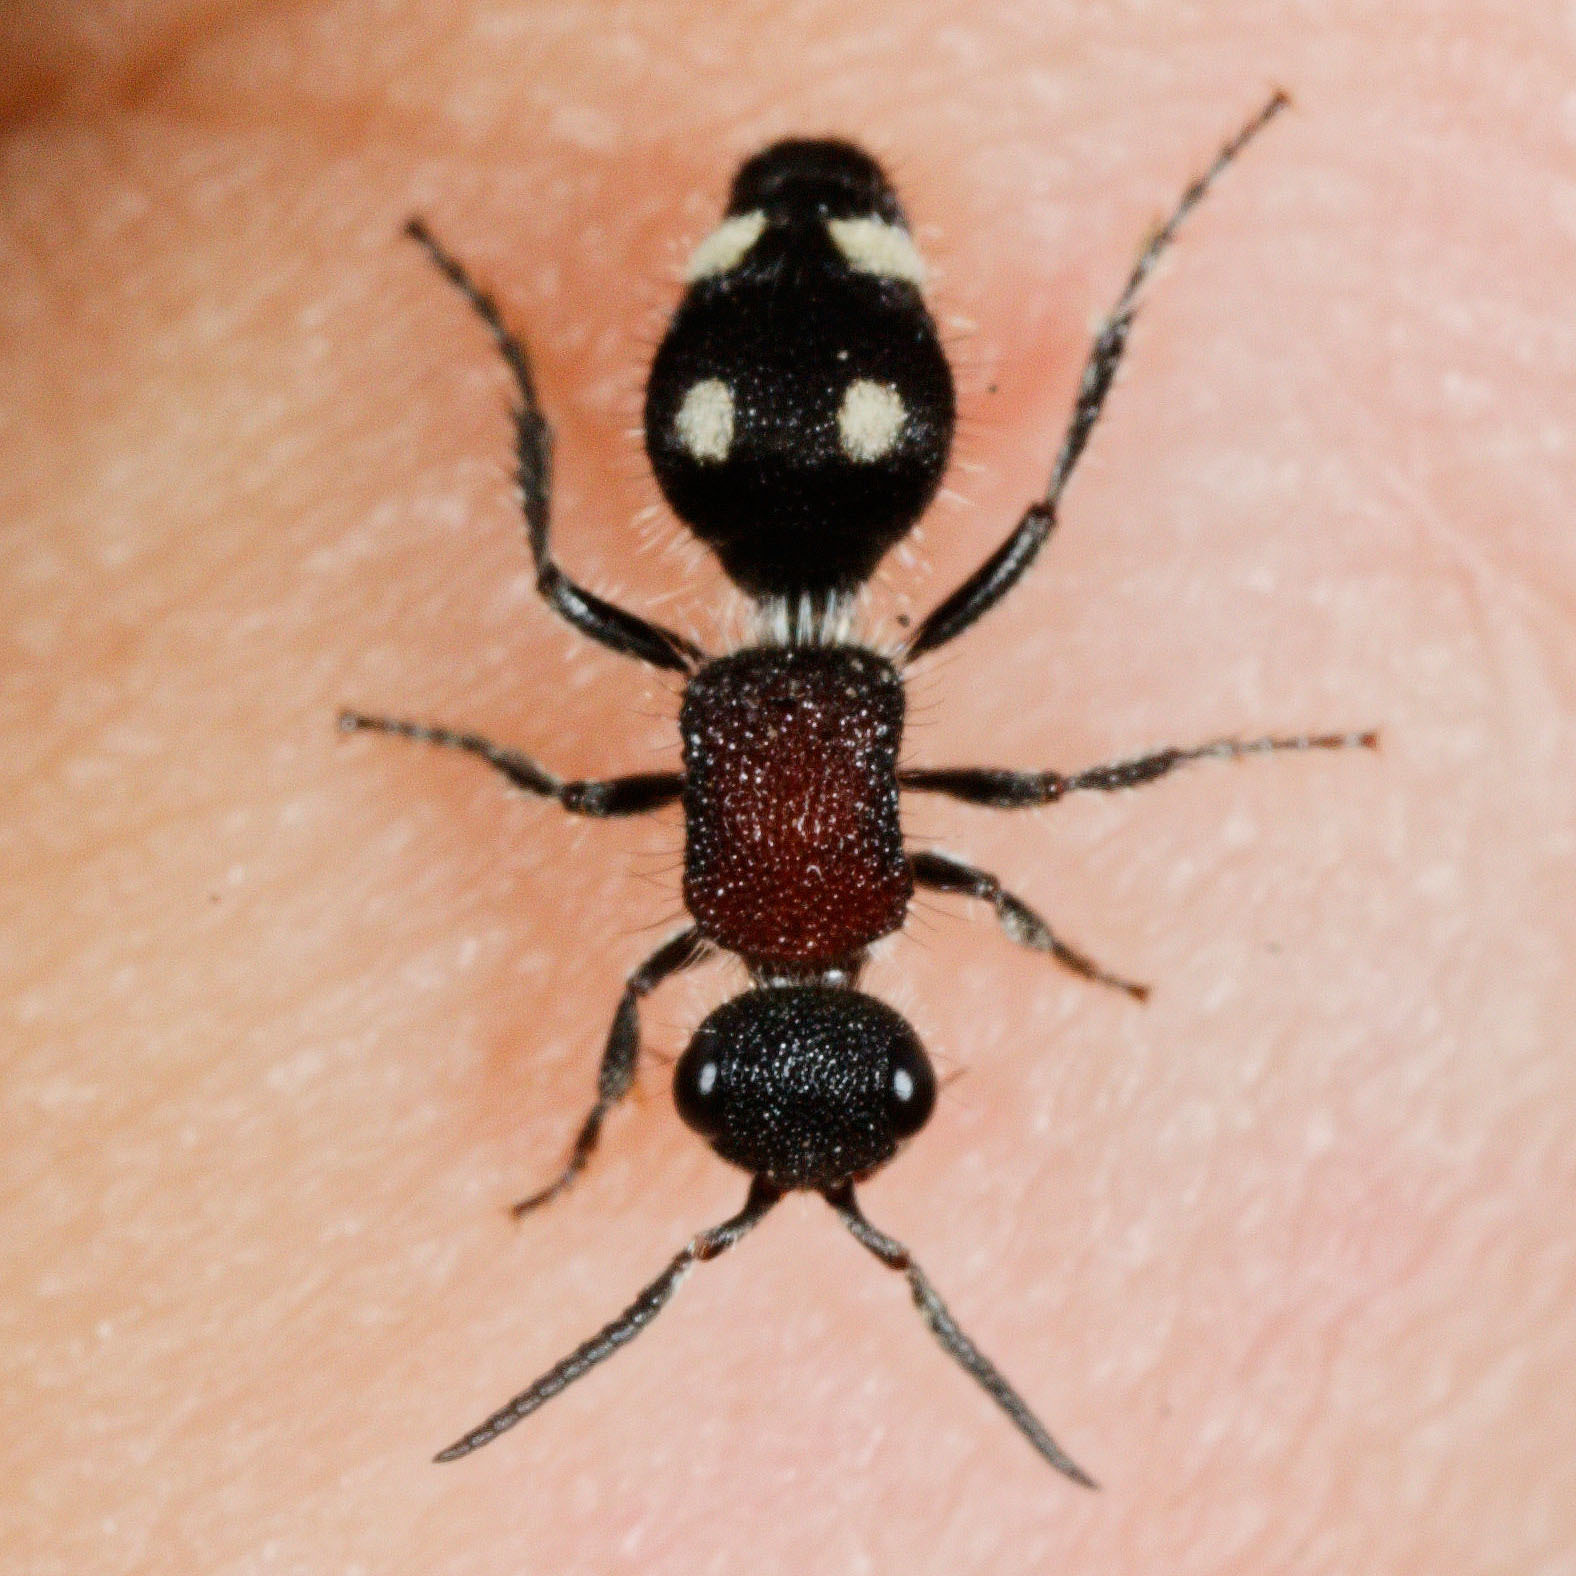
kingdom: Animalia
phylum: Arthropoda
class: Insecta
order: Hymenoptera
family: Mutillidae
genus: Trogaspidia
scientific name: Trogaspidia
